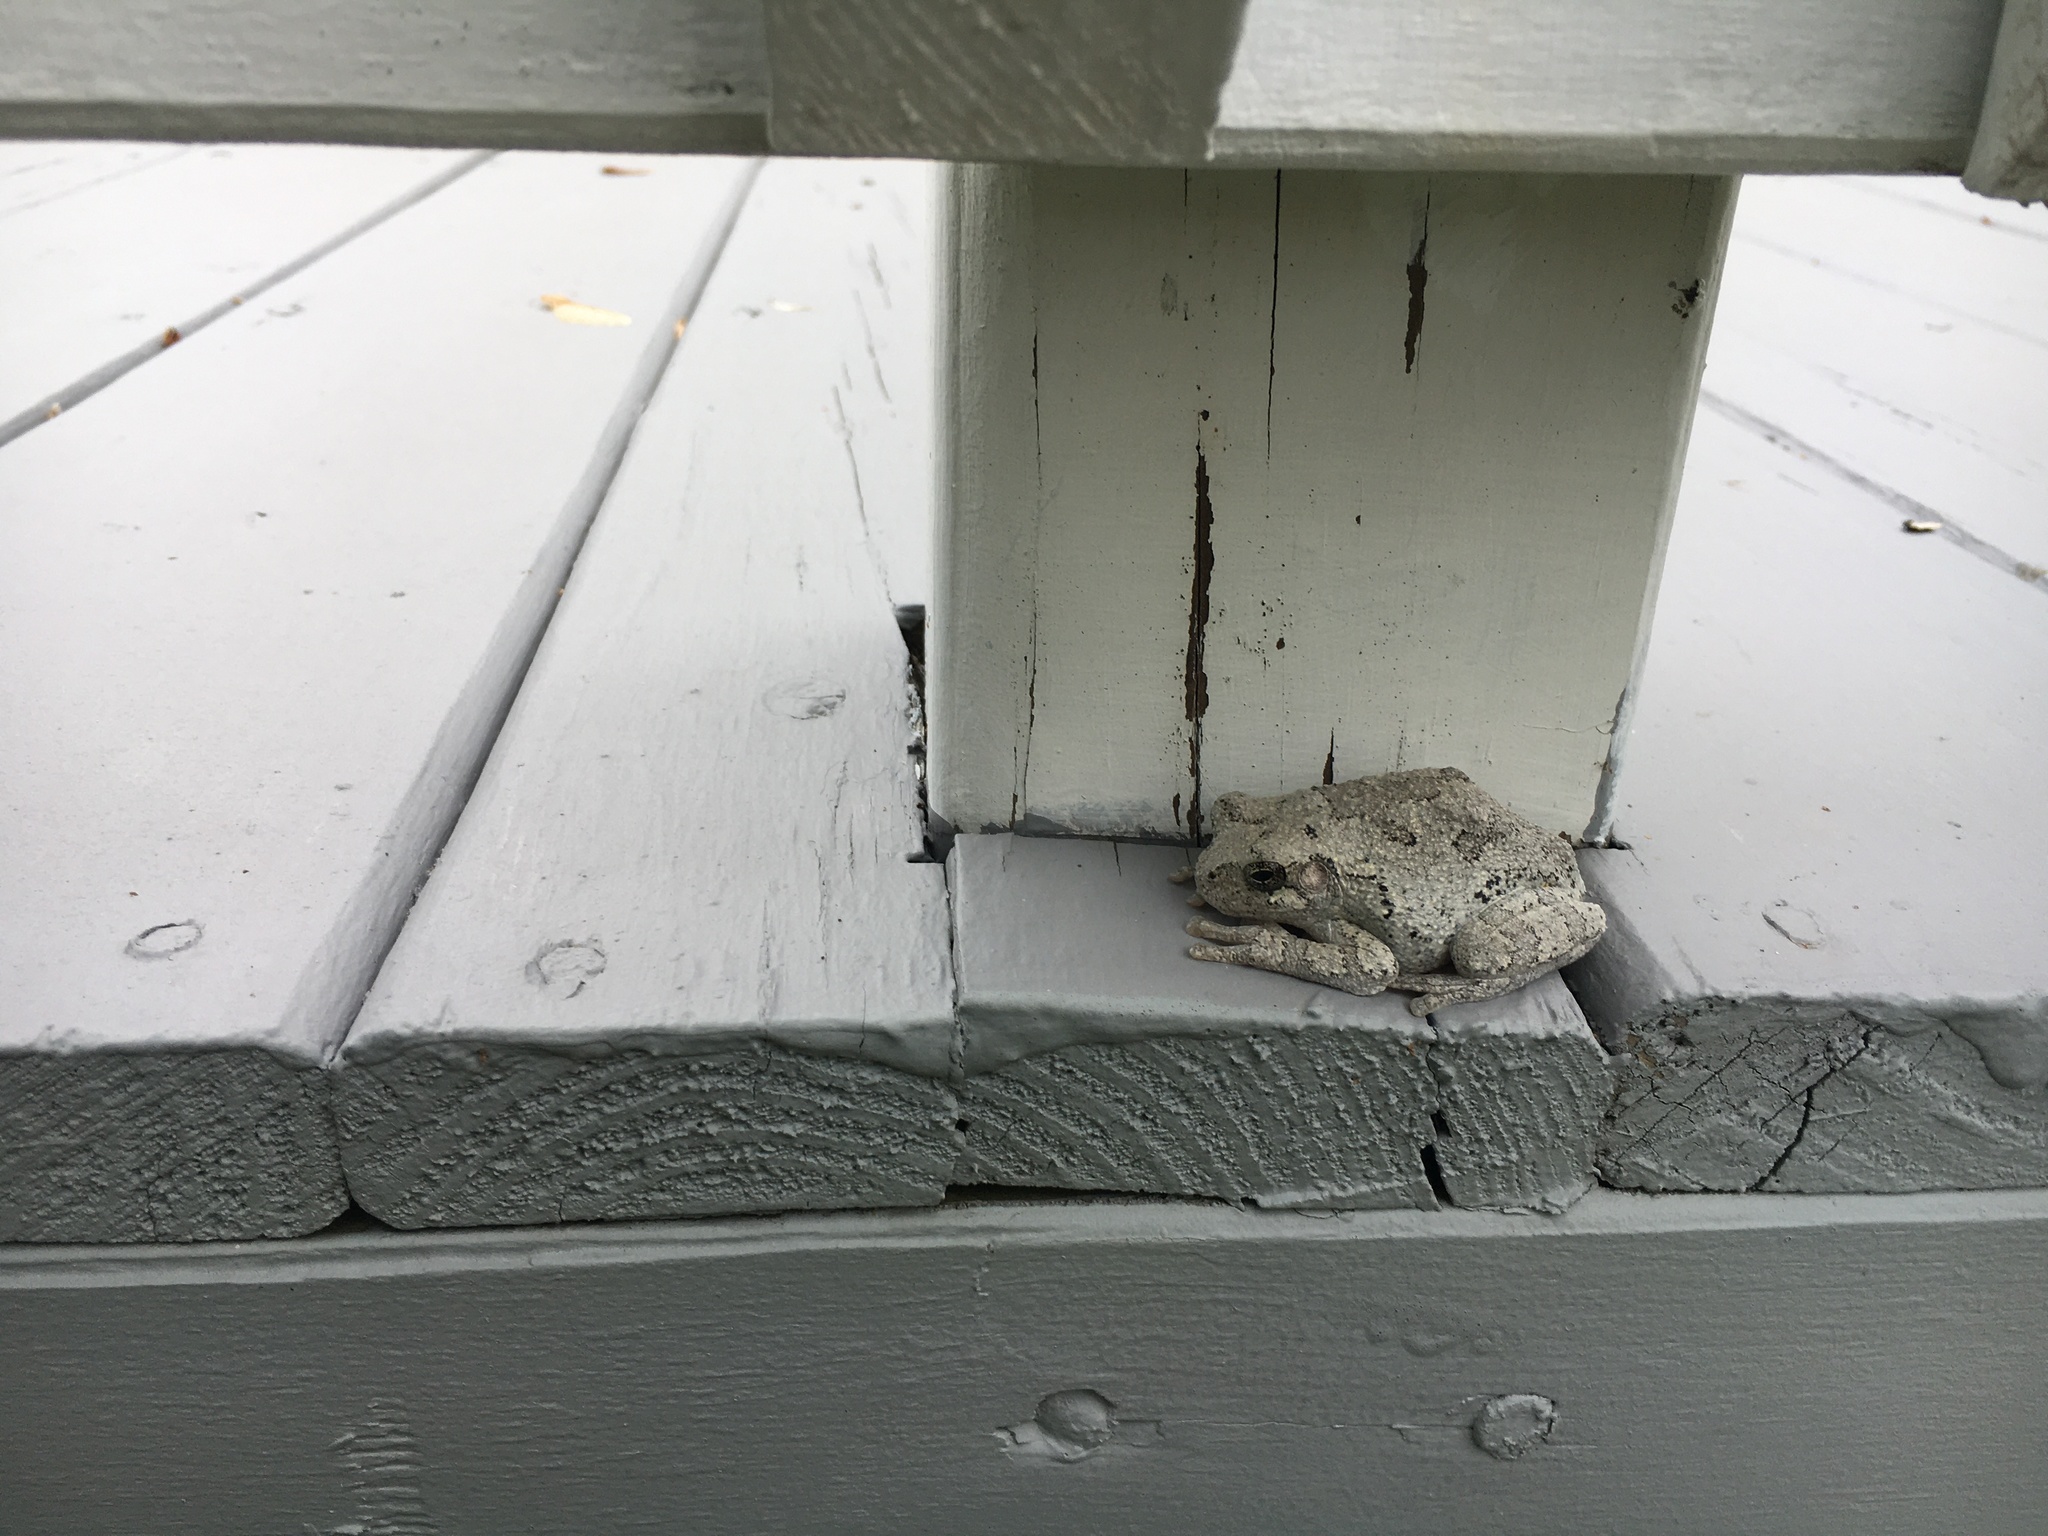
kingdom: Animalia
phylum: Chordata
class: Amphibia
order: Anura
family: Hylidae
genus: Dryophytes
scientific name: Dryophytes chrysoscelis
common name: Cope's gray treefrog
